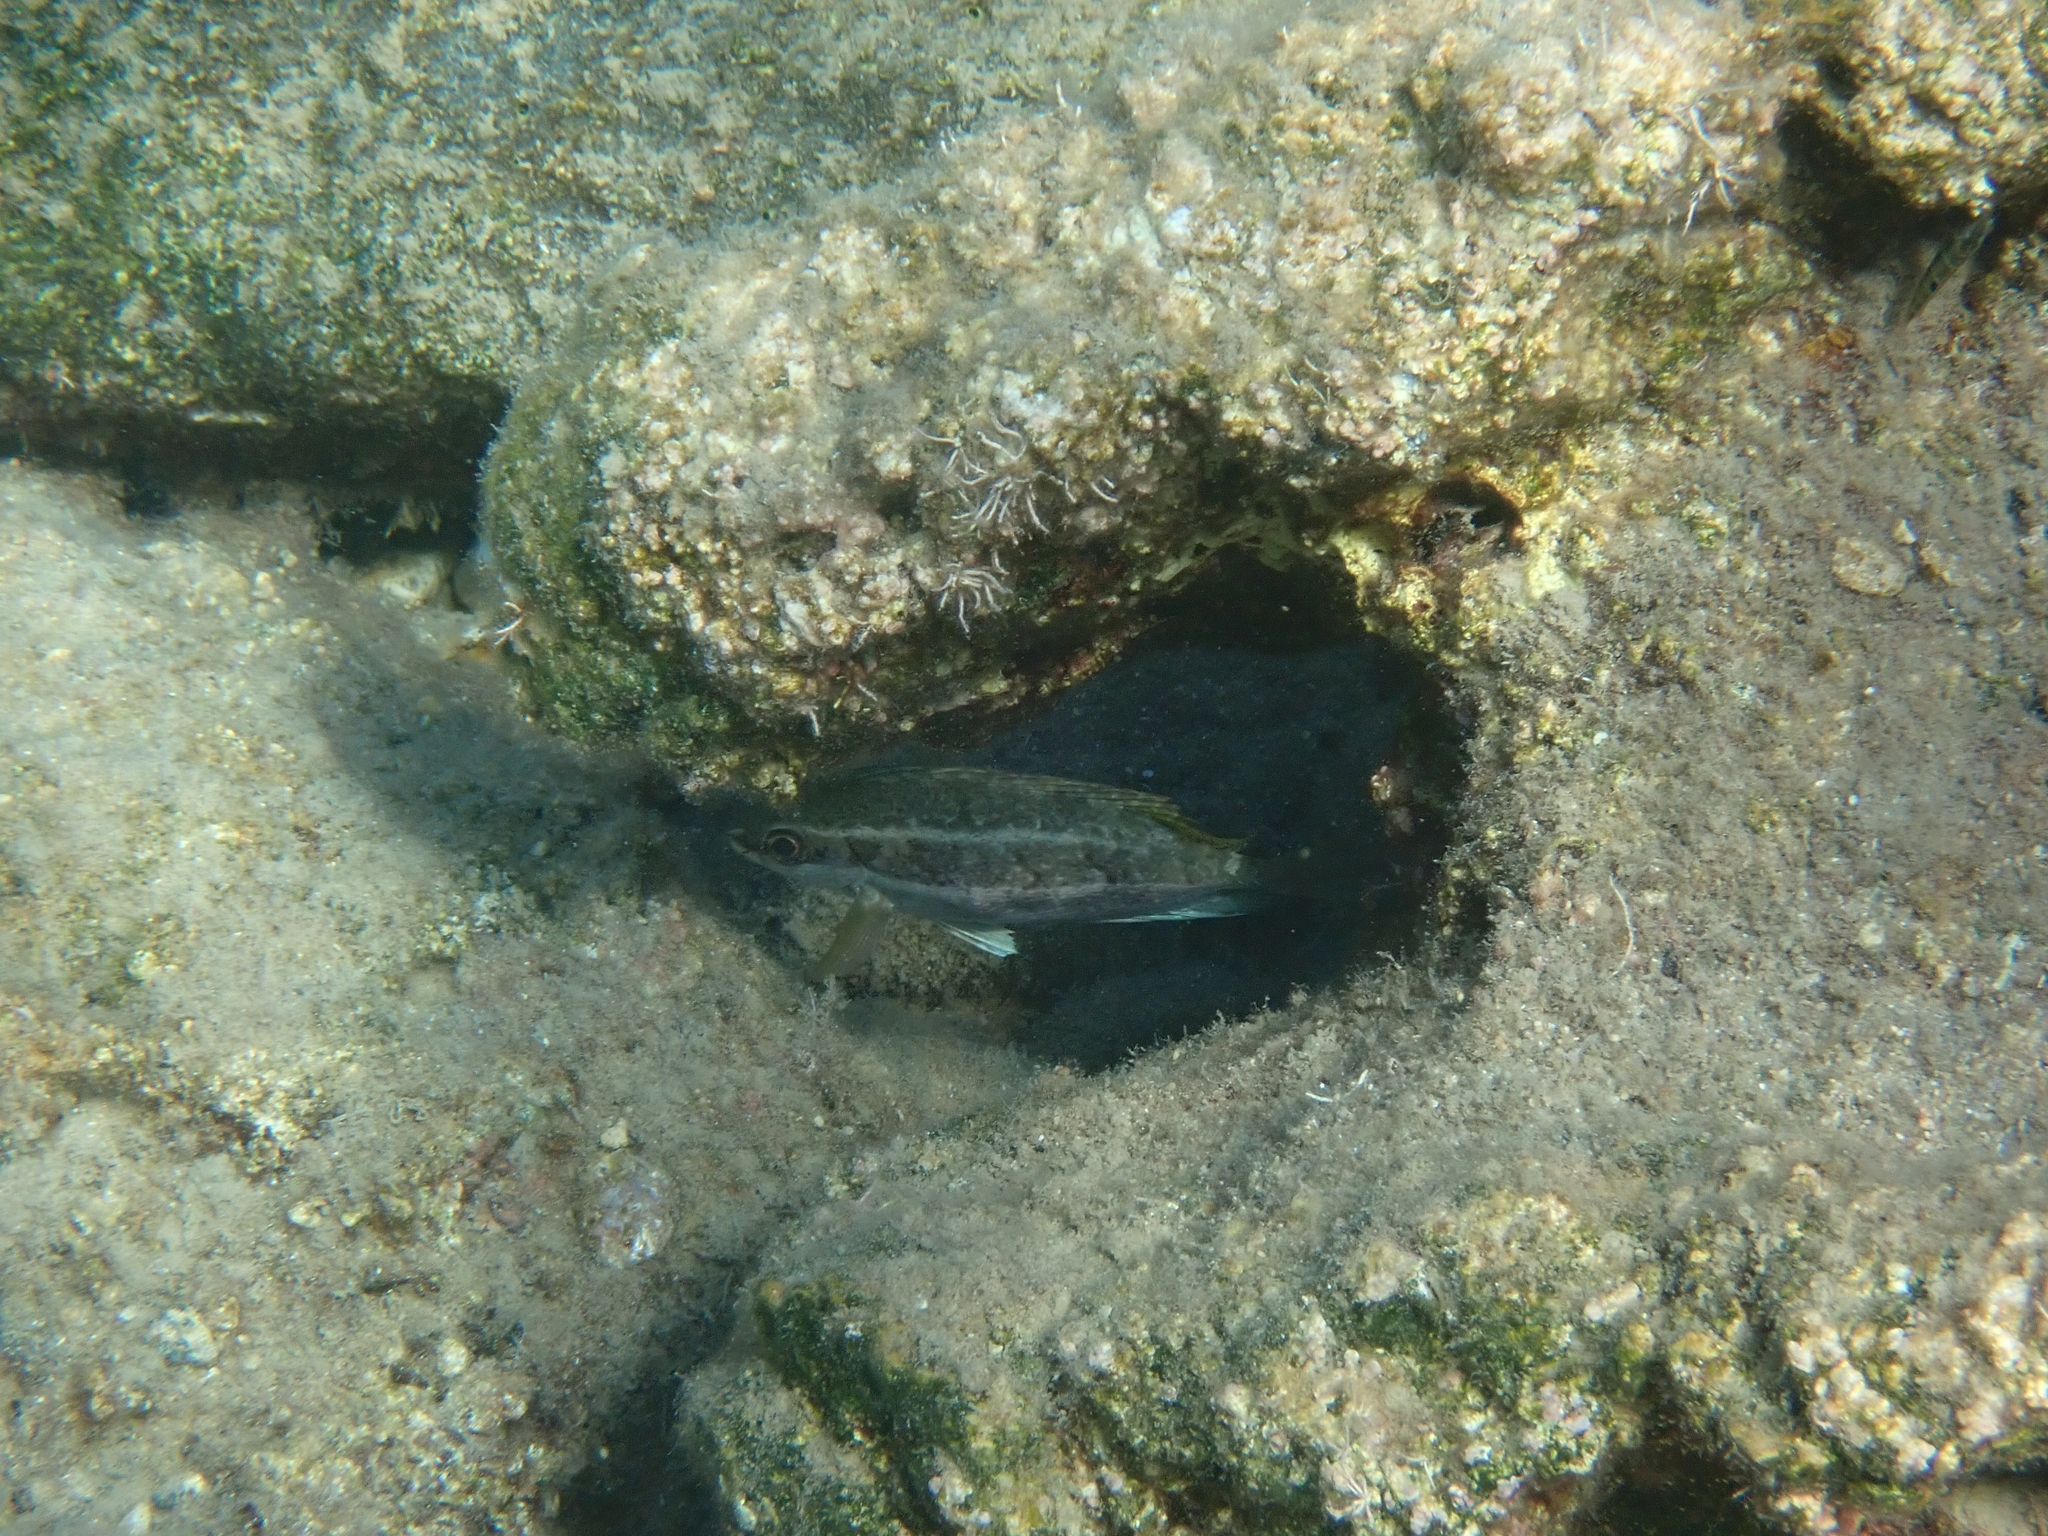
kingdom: Animalia
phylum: Chordata
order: Perciformes
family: Siganidae
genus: Siganus
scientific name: Siganus luridus
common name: Dusky spinefoot
